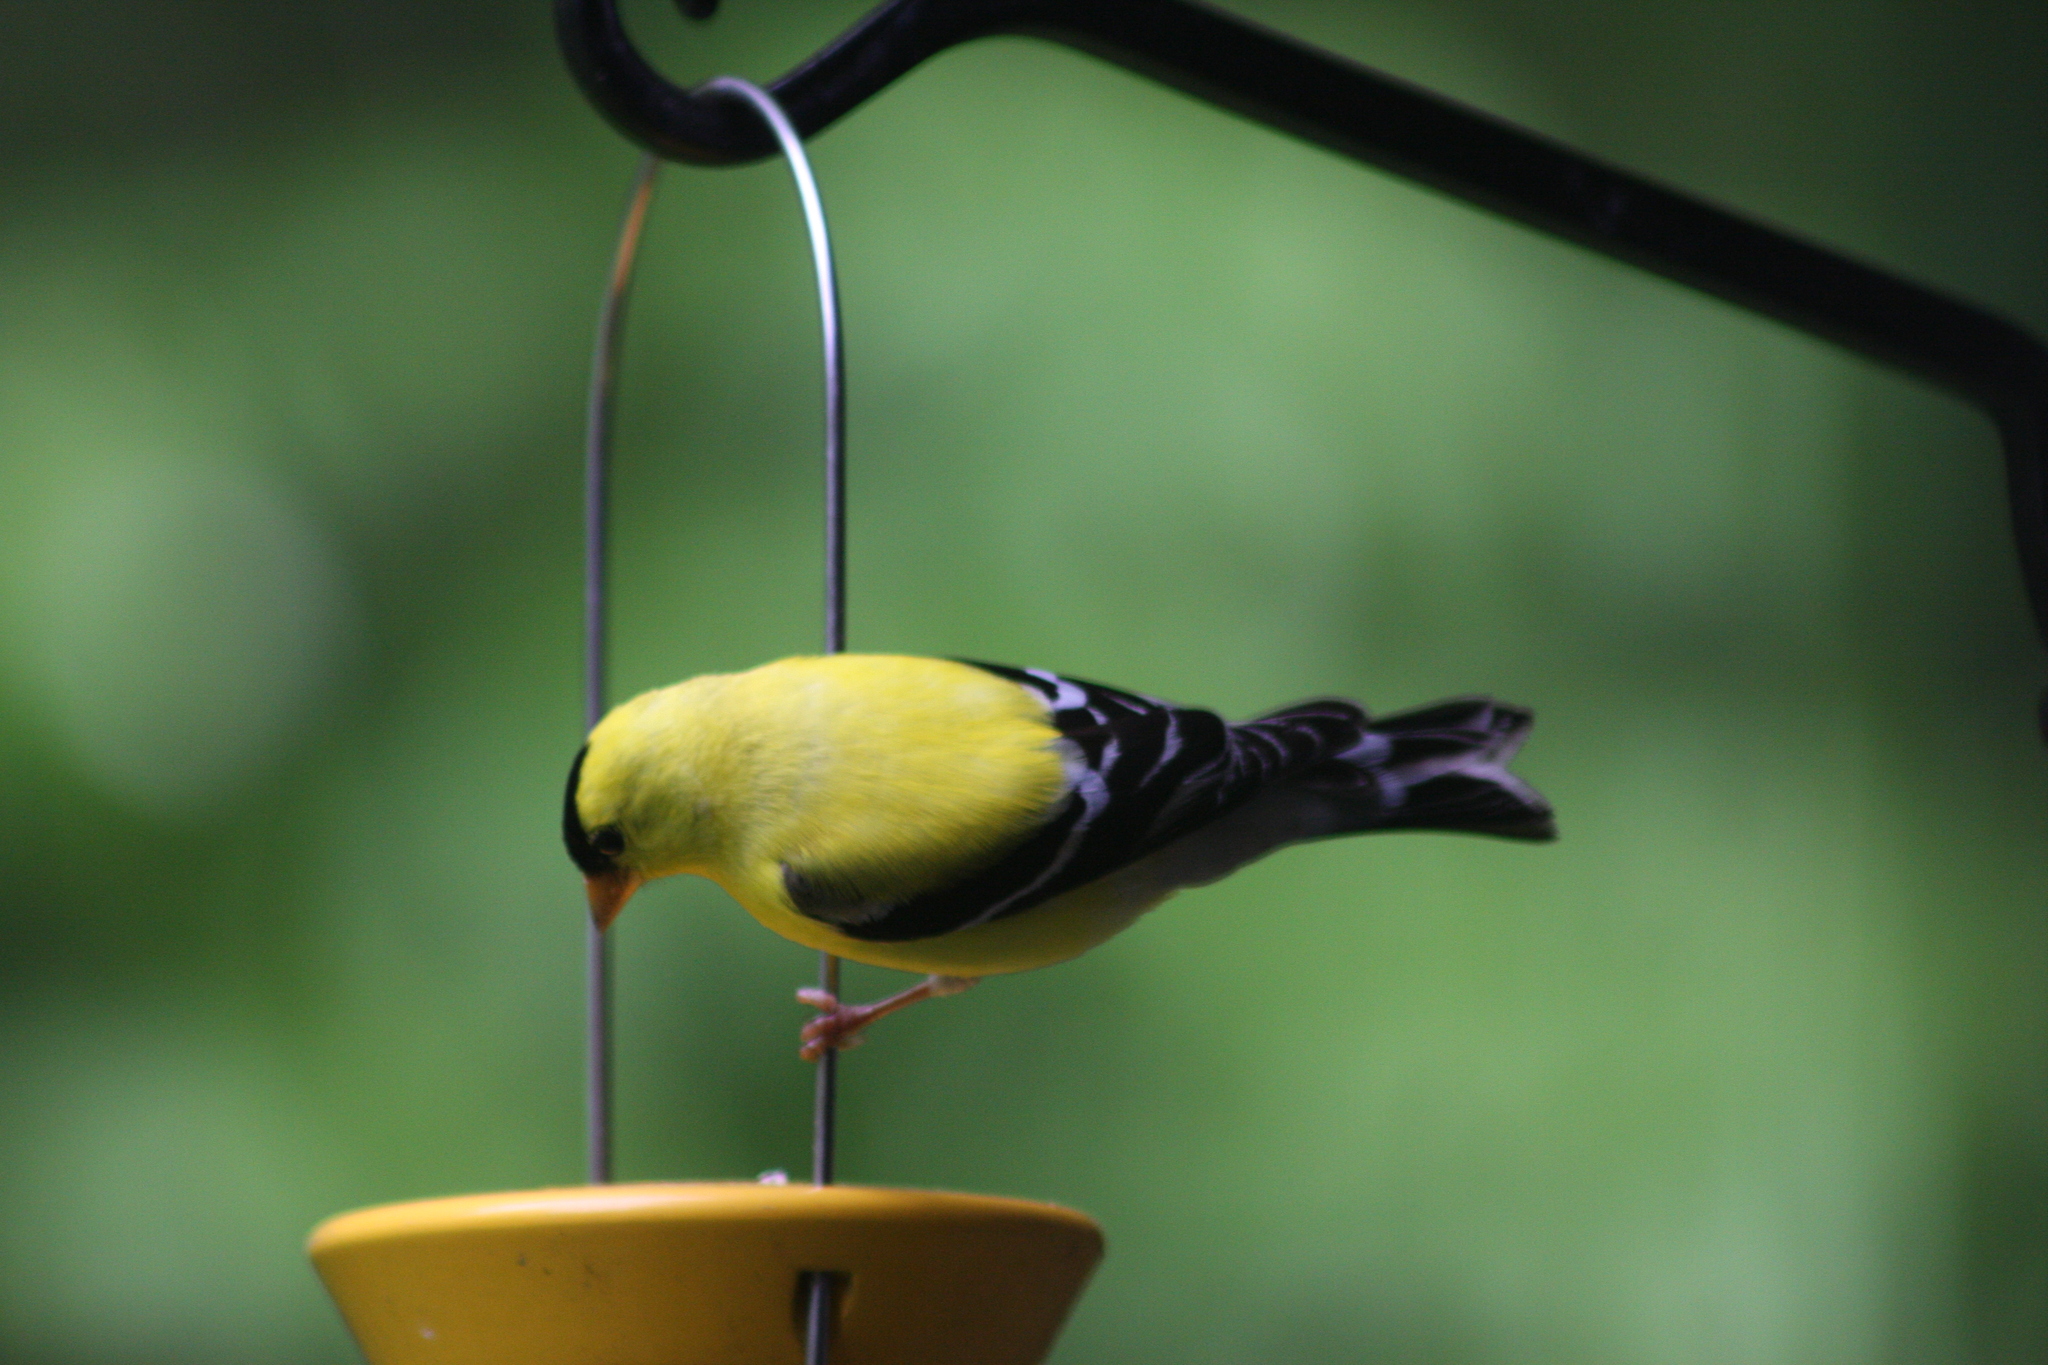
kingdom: Animalia
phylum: Chordata
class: Aves
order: Passeriformes
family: Fringillidae
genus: Spinus
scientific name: Spinus tristis
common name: American goldfinch
